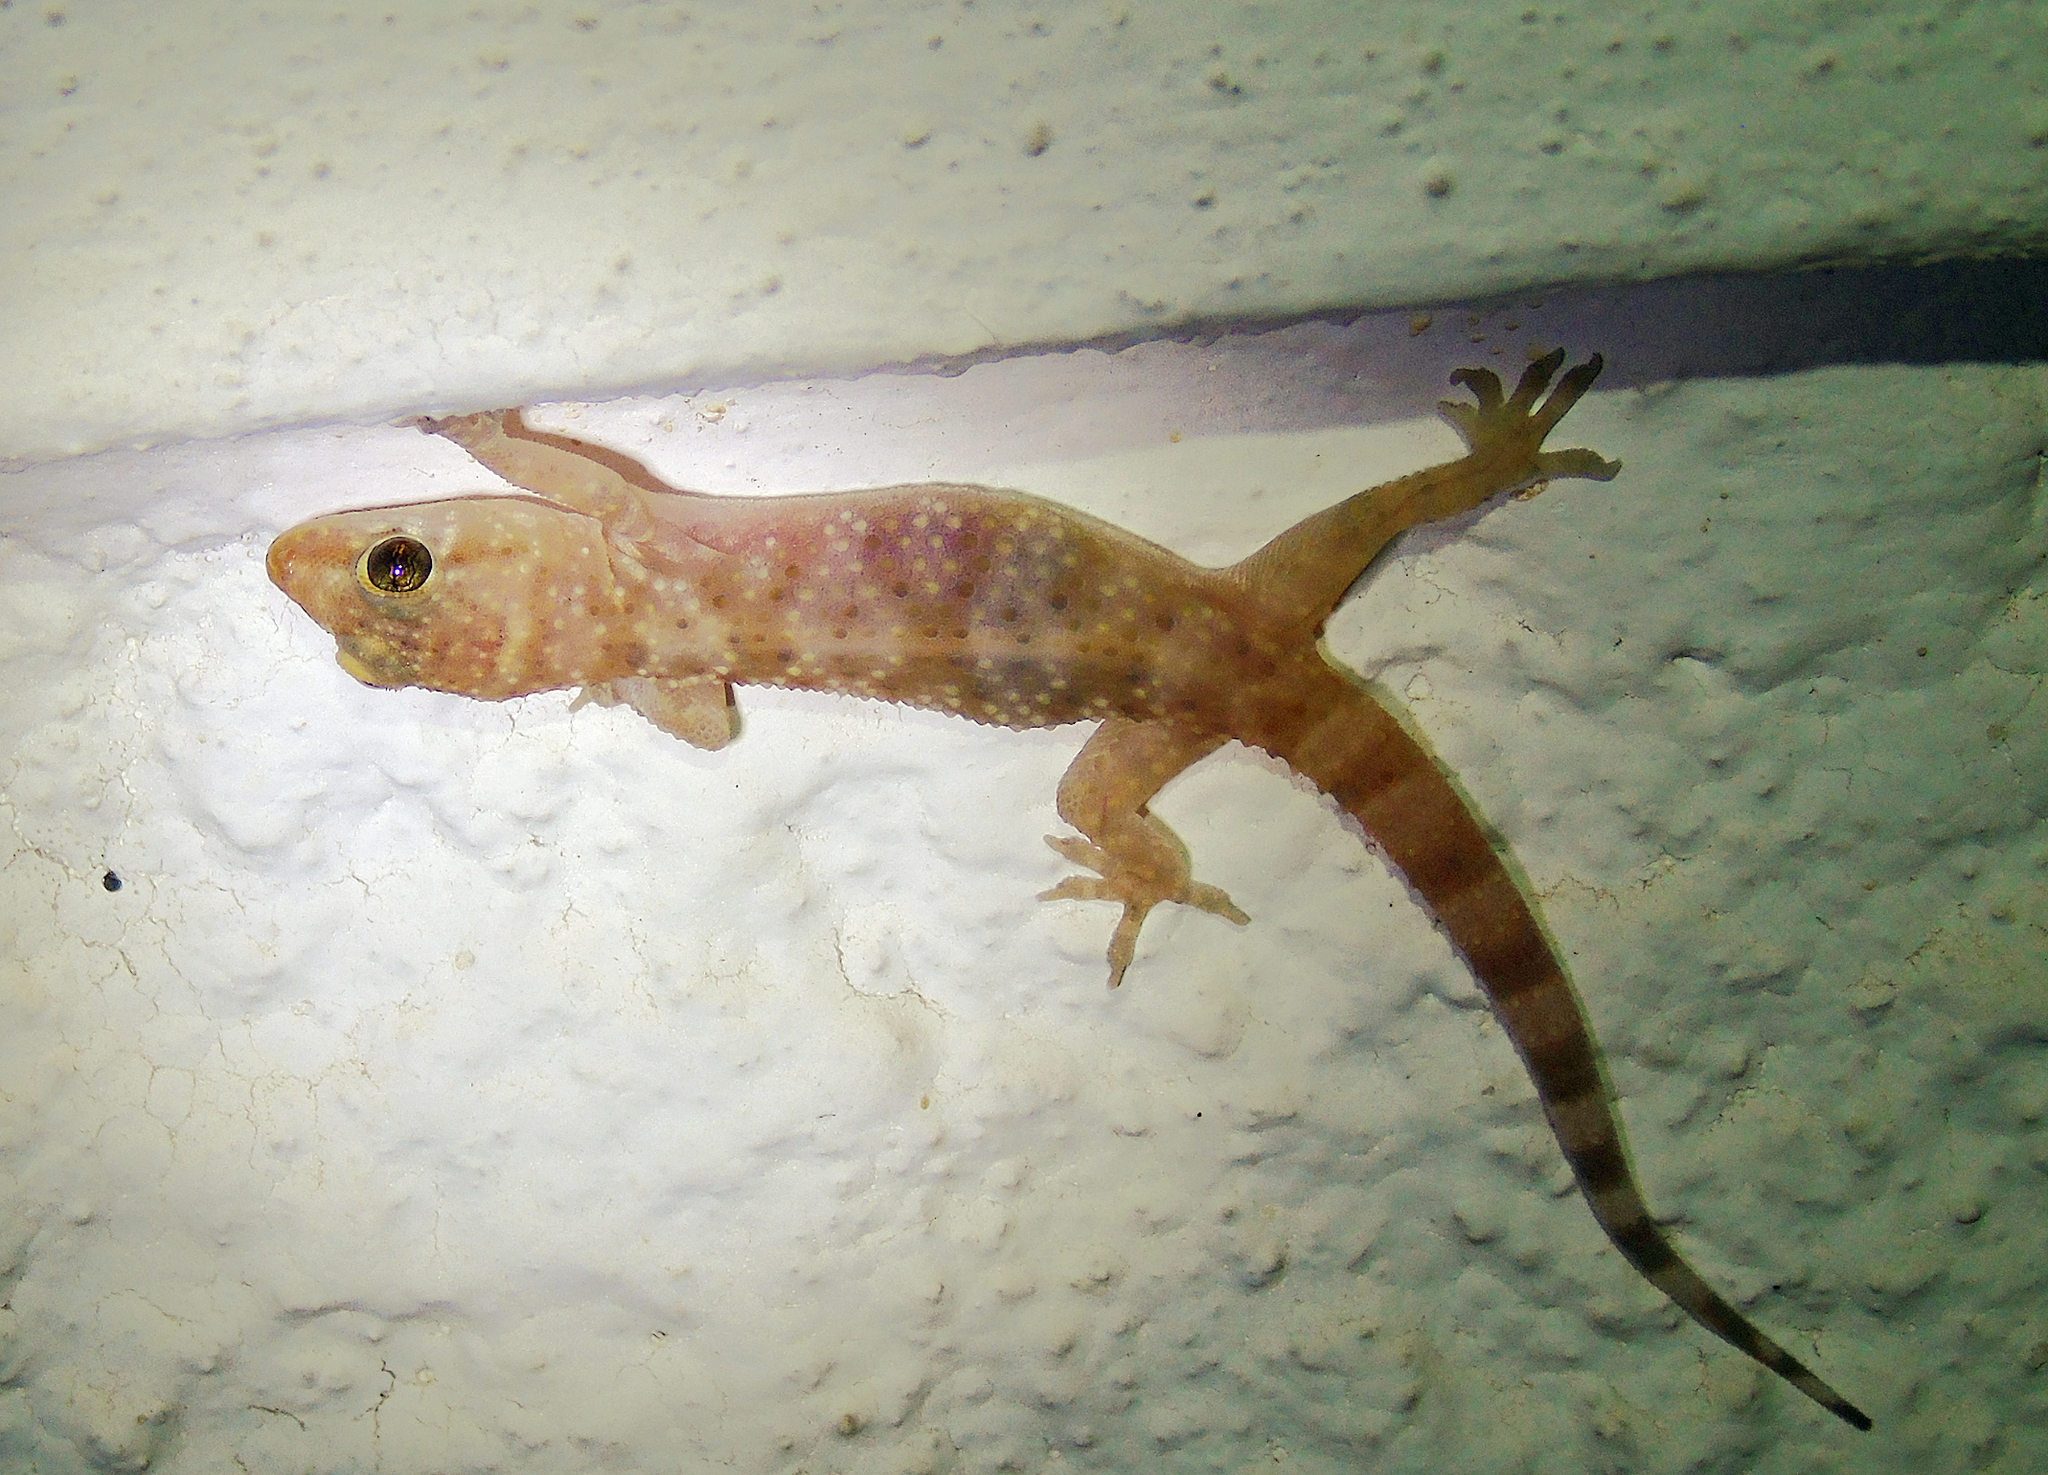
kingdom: Animalia
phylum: Chordata
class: Squamata
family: Gekkonidae
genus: Hemidactylus
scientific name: Hemidactylus turcicus
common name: Turkish gecko
